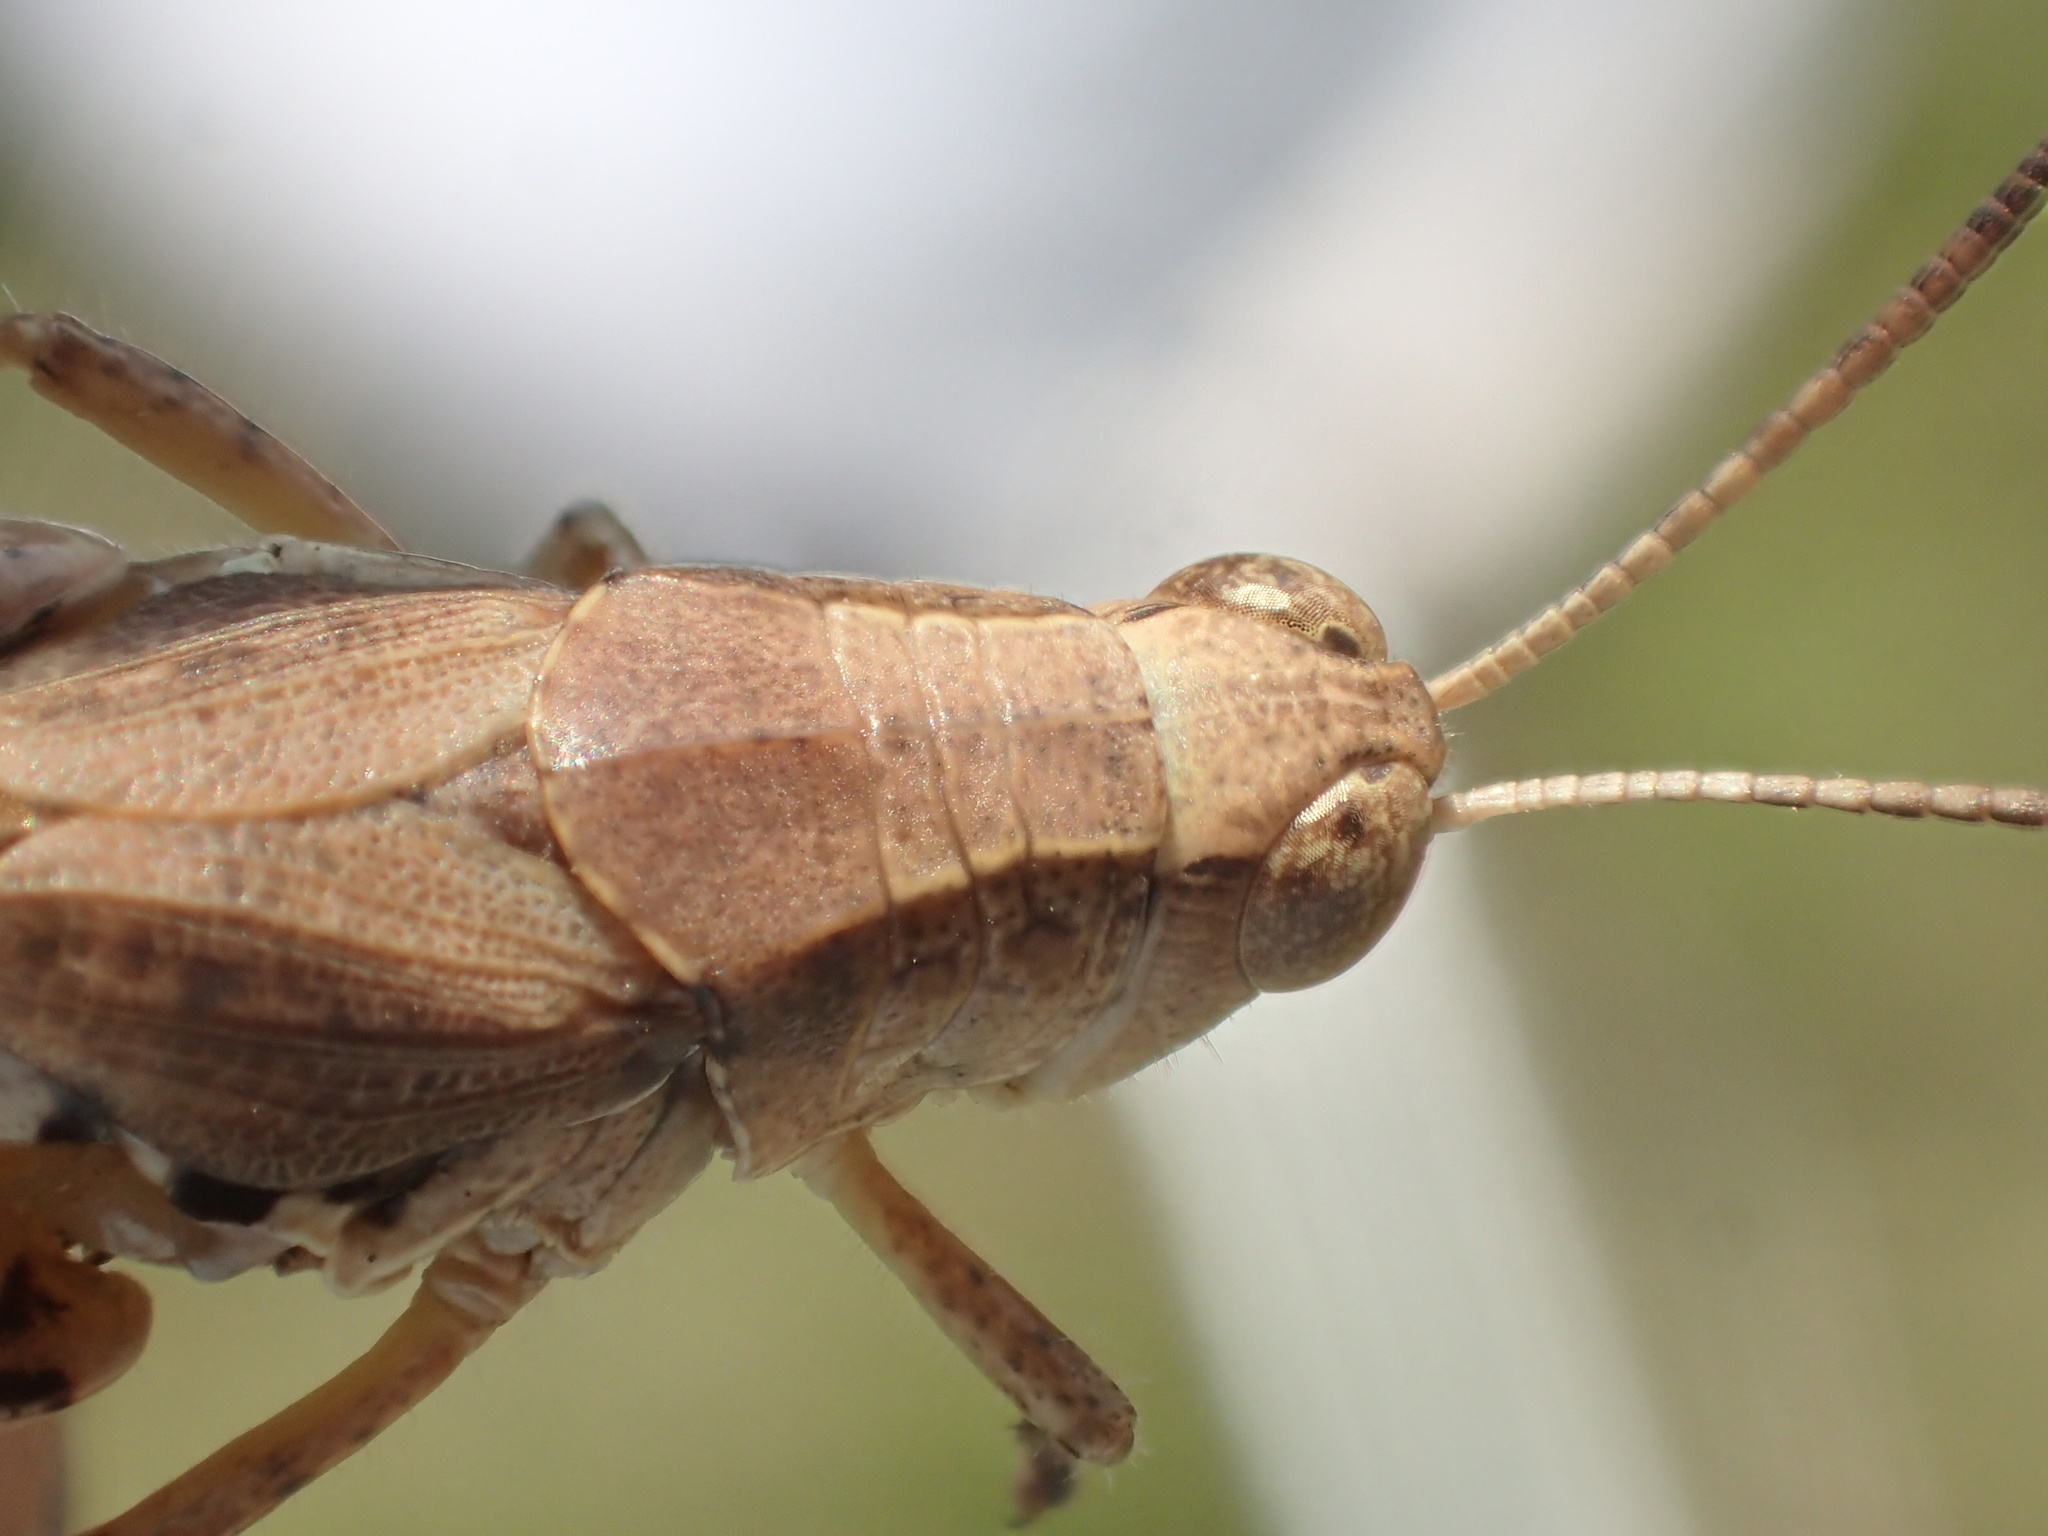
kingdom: Animalia
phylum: Arthropoda
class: Insecta
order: Orthoptera
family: Acrididae
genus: Phaulacridium
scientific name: Phaulacridium vittatum
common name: Wingless grasshopper
